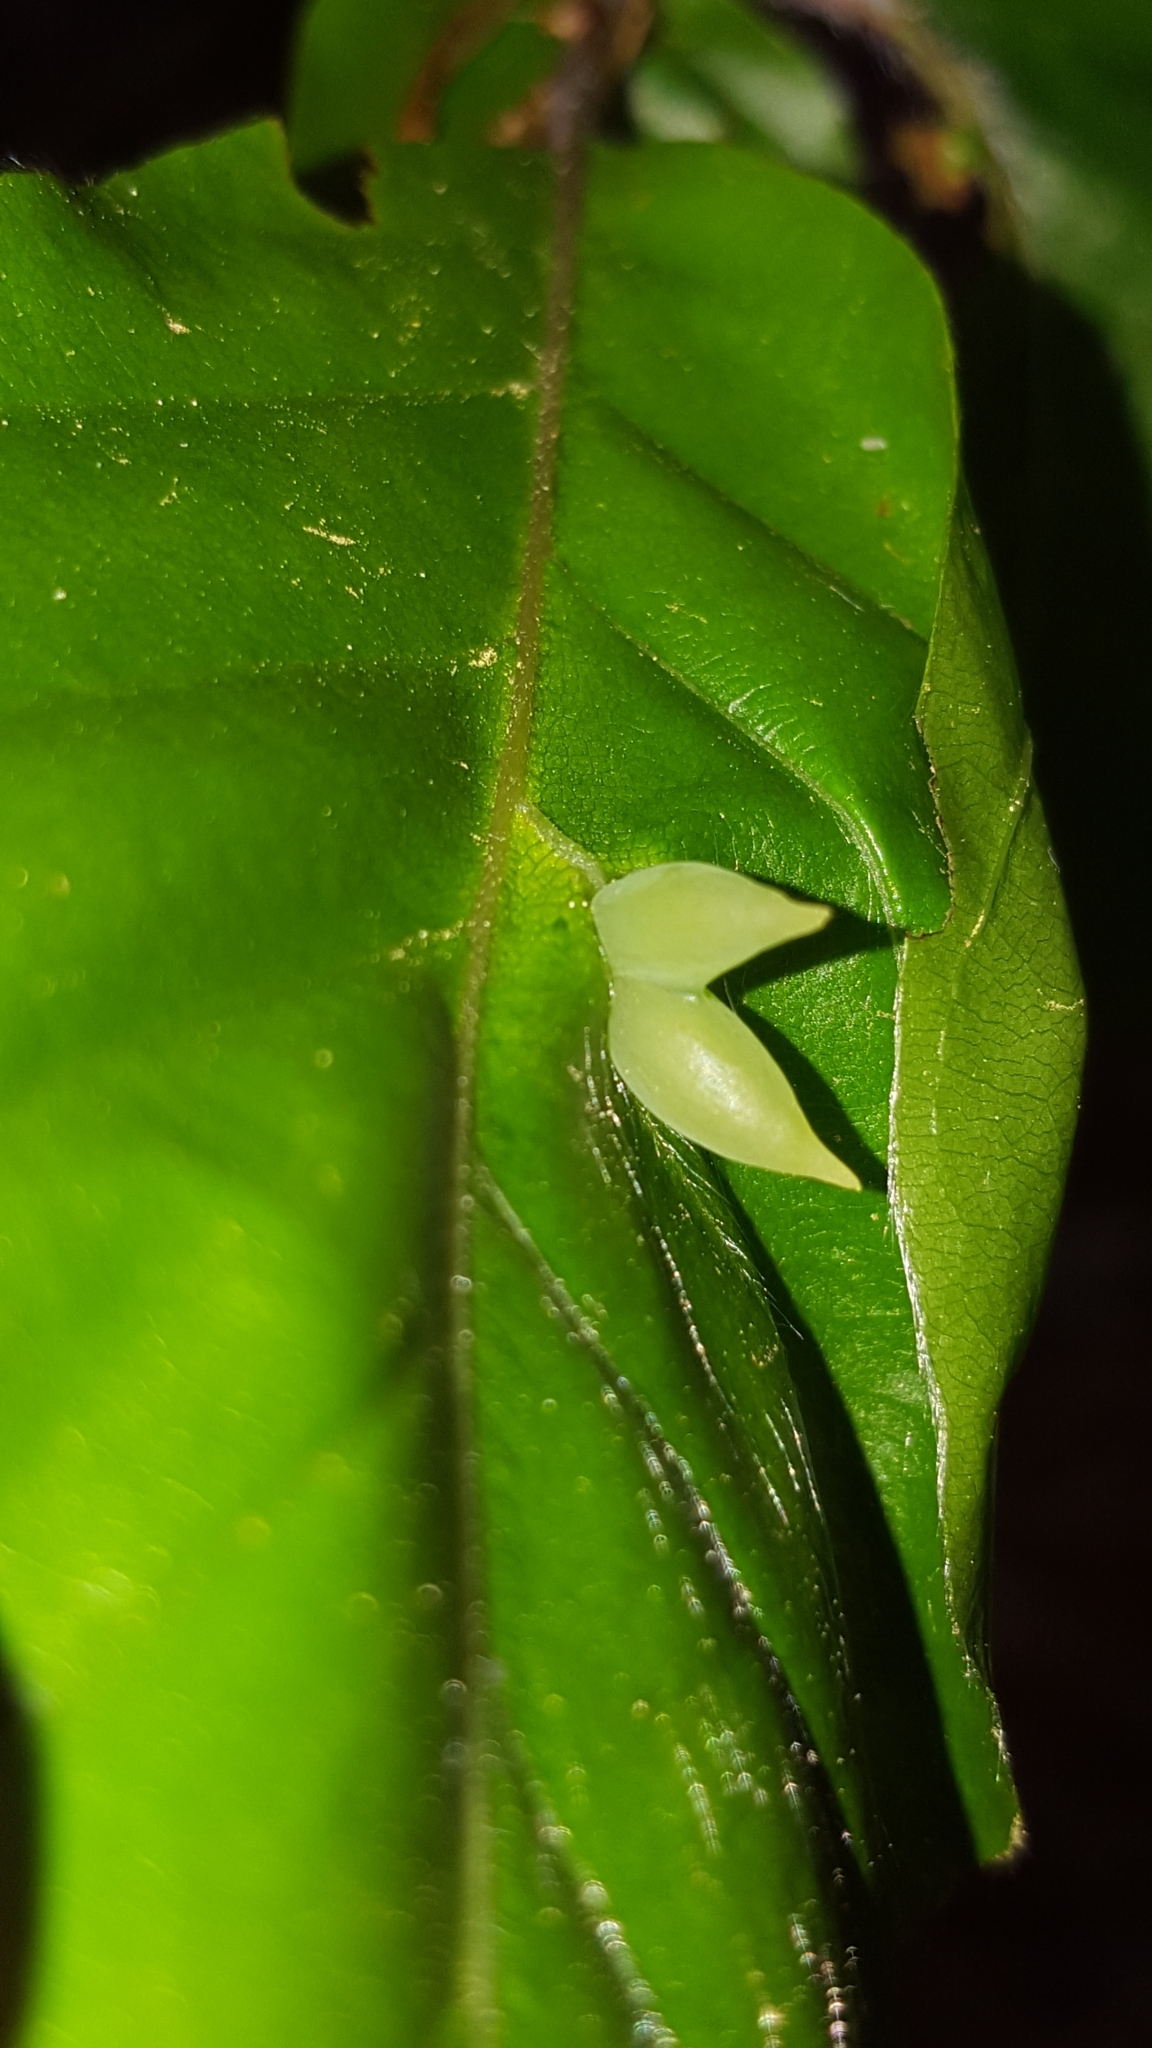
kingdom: Animalia
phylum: Arthropoda
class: Insecta
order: Diptera
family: Cecidomyiidae
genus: Mikiola
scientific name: Mikiola fagi
